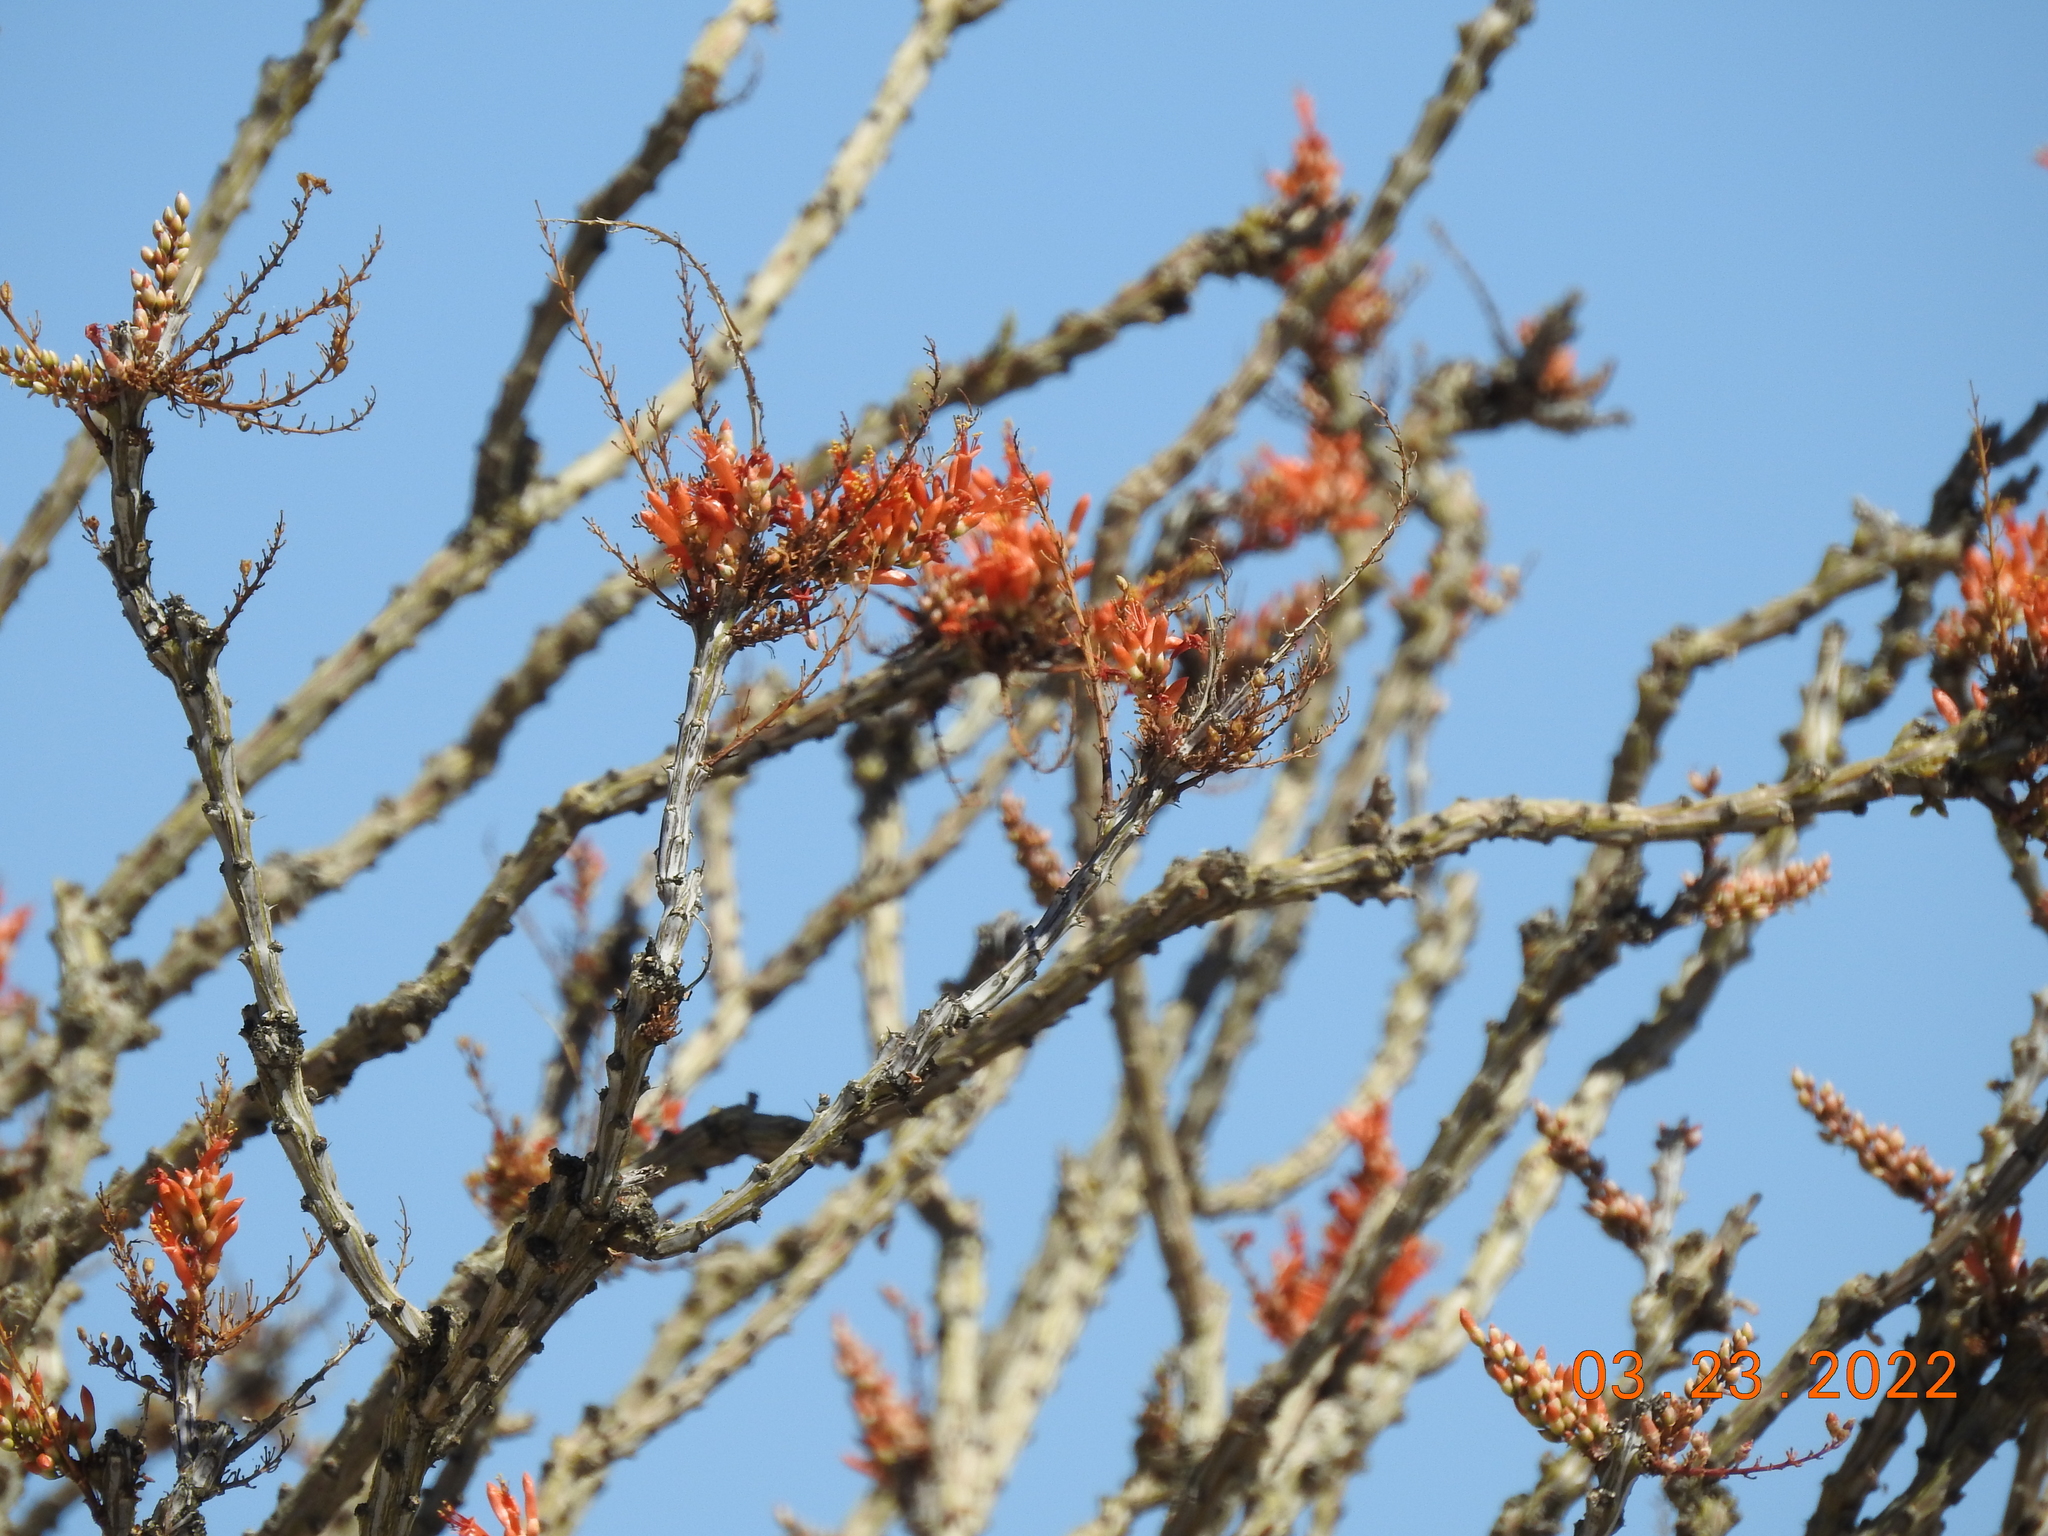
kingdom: Plantae
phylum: Tracheophyta
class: Magnoliopsida
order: Ericales
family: Fouquieriaceae
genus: Fouquieria
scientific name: Fouquieria splendens
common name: Vine-cactus
